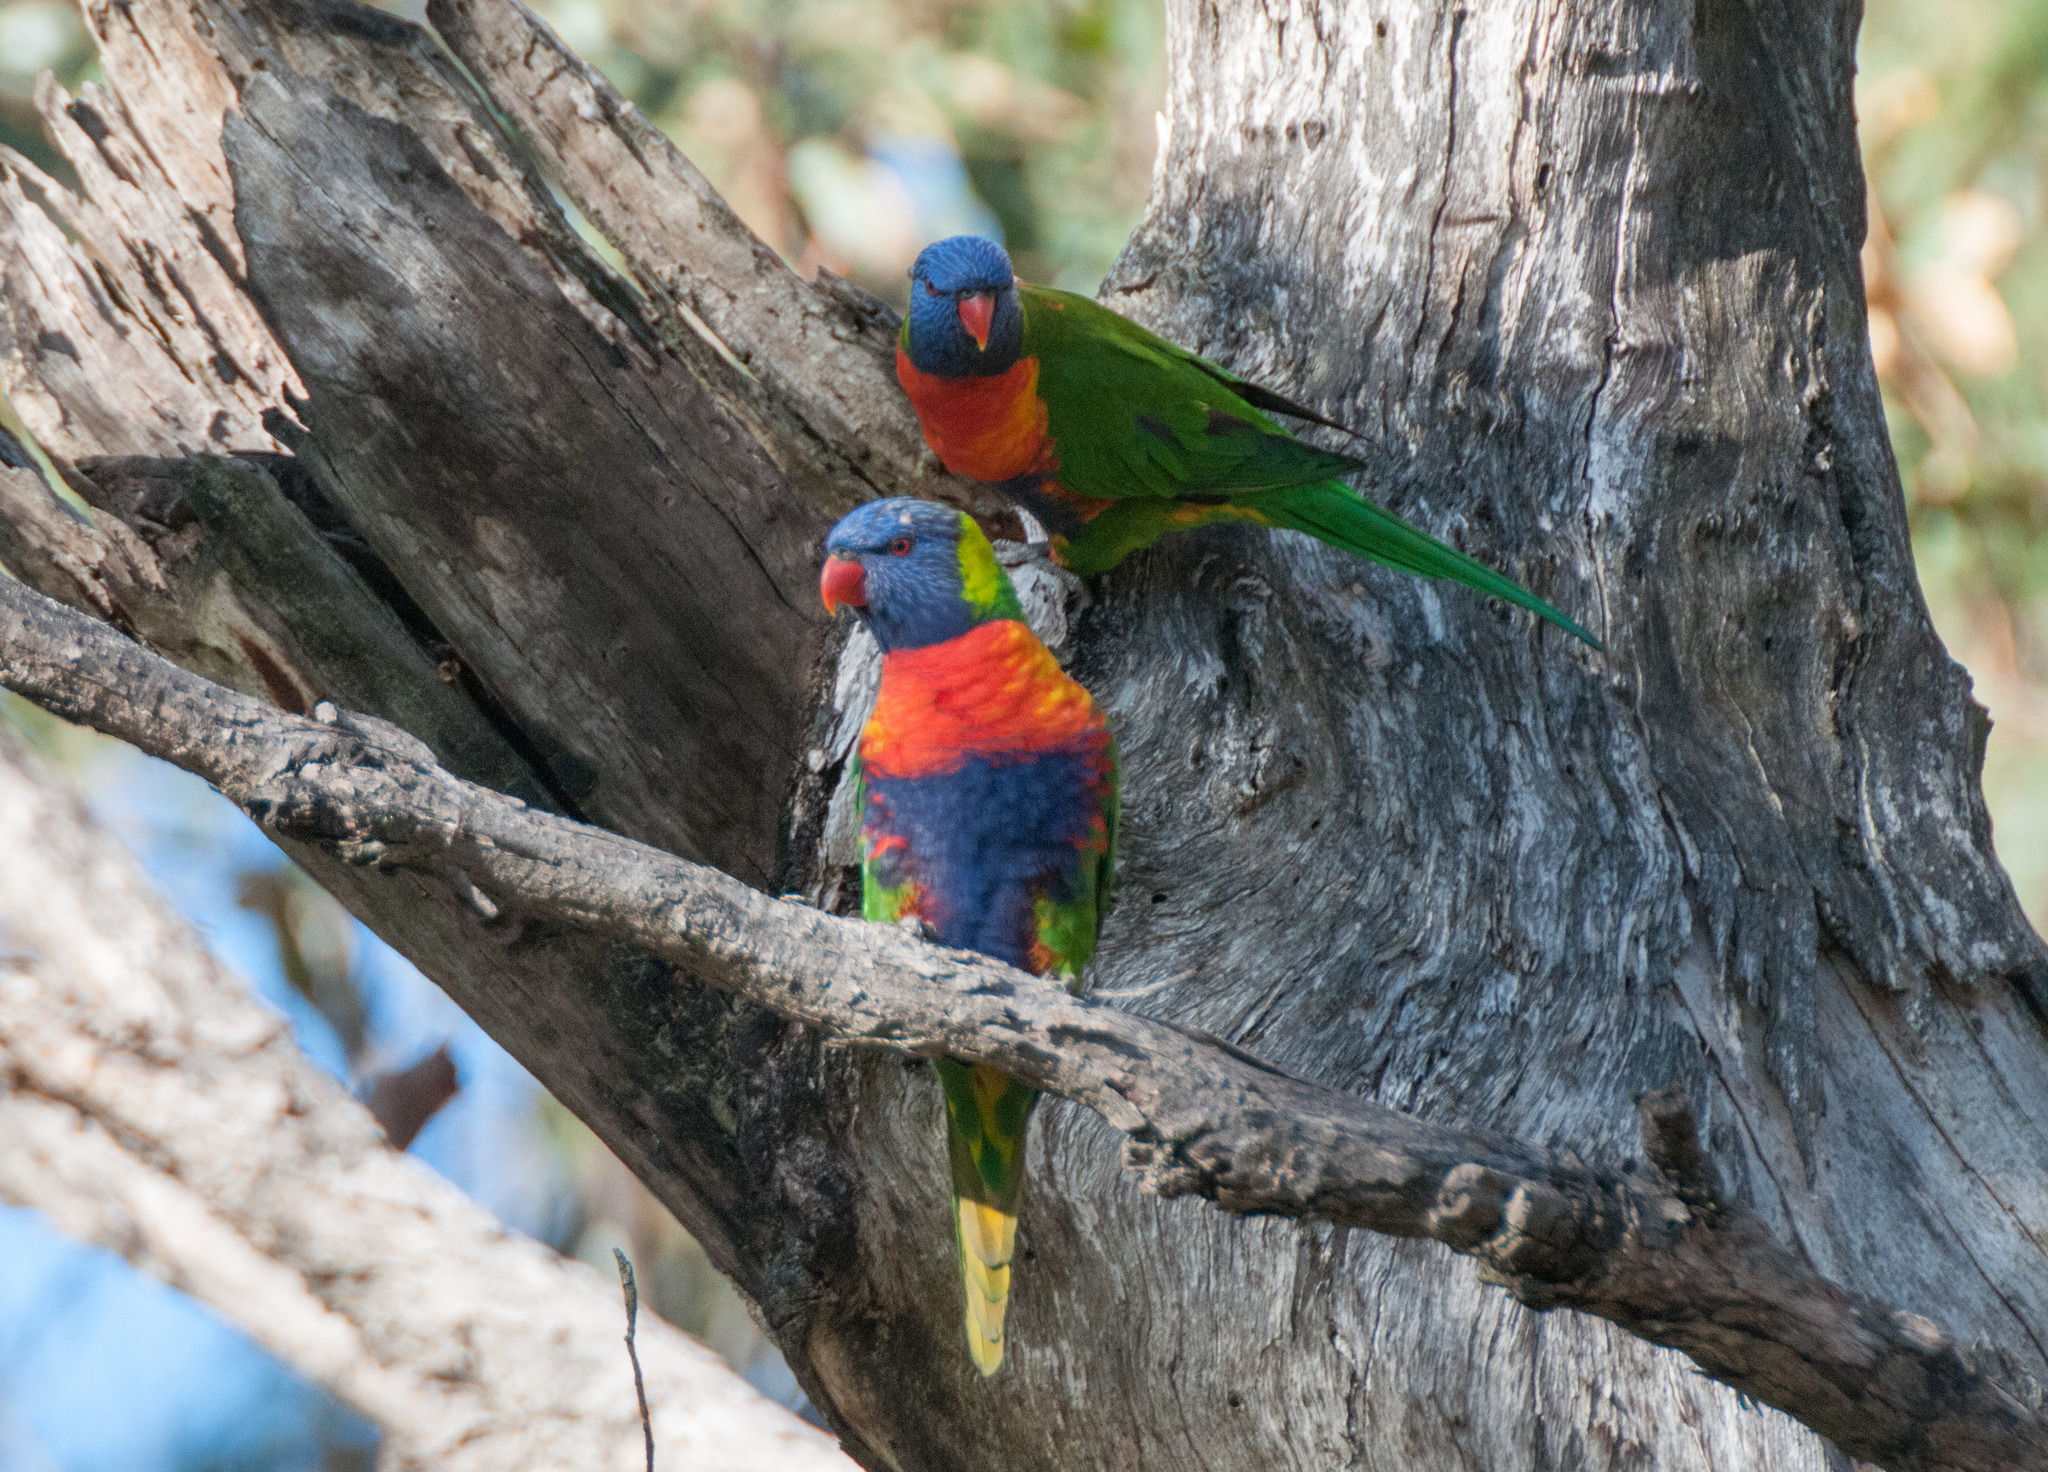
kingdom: Animalia
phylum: Chordata
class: Aves
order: Psittaciformes
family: Psittacidae
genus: Trichoglossus
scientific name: Trichoglossus haematodus
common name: Coconut lorikeet
